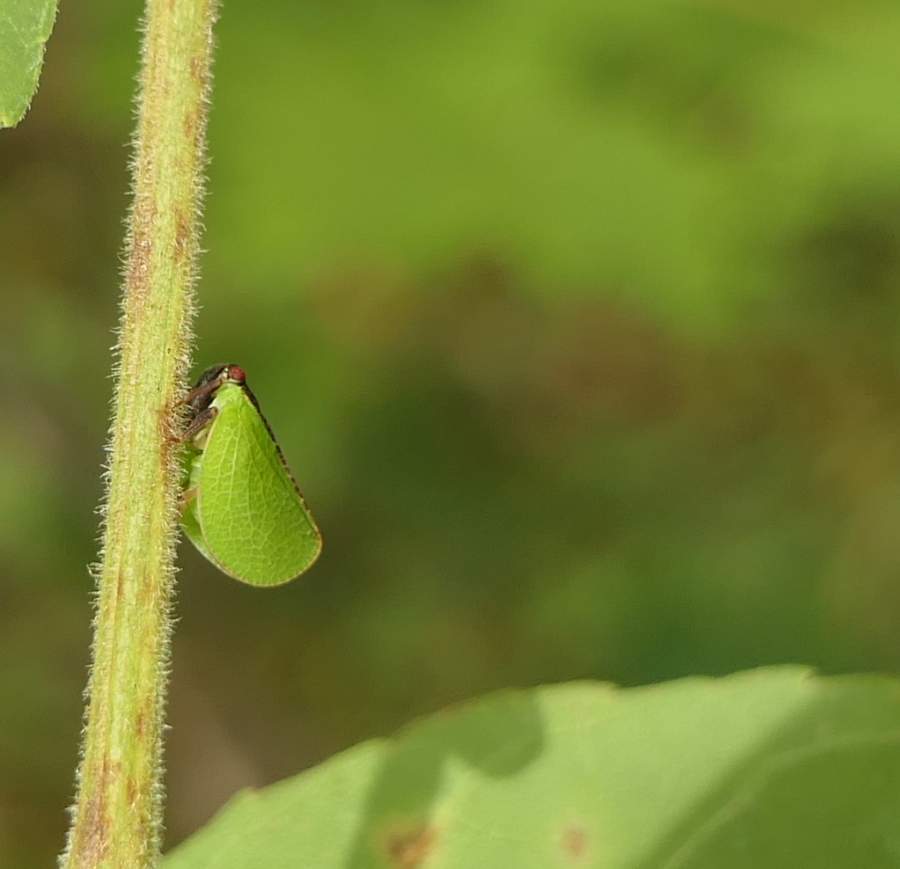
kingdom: Animalia
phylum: Arthropoda
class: Insecta
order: Hemiptera
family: Acanaloniidae
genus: Acanalonia
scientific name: Acanalonia bivittata
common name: Two-striped planthopper
